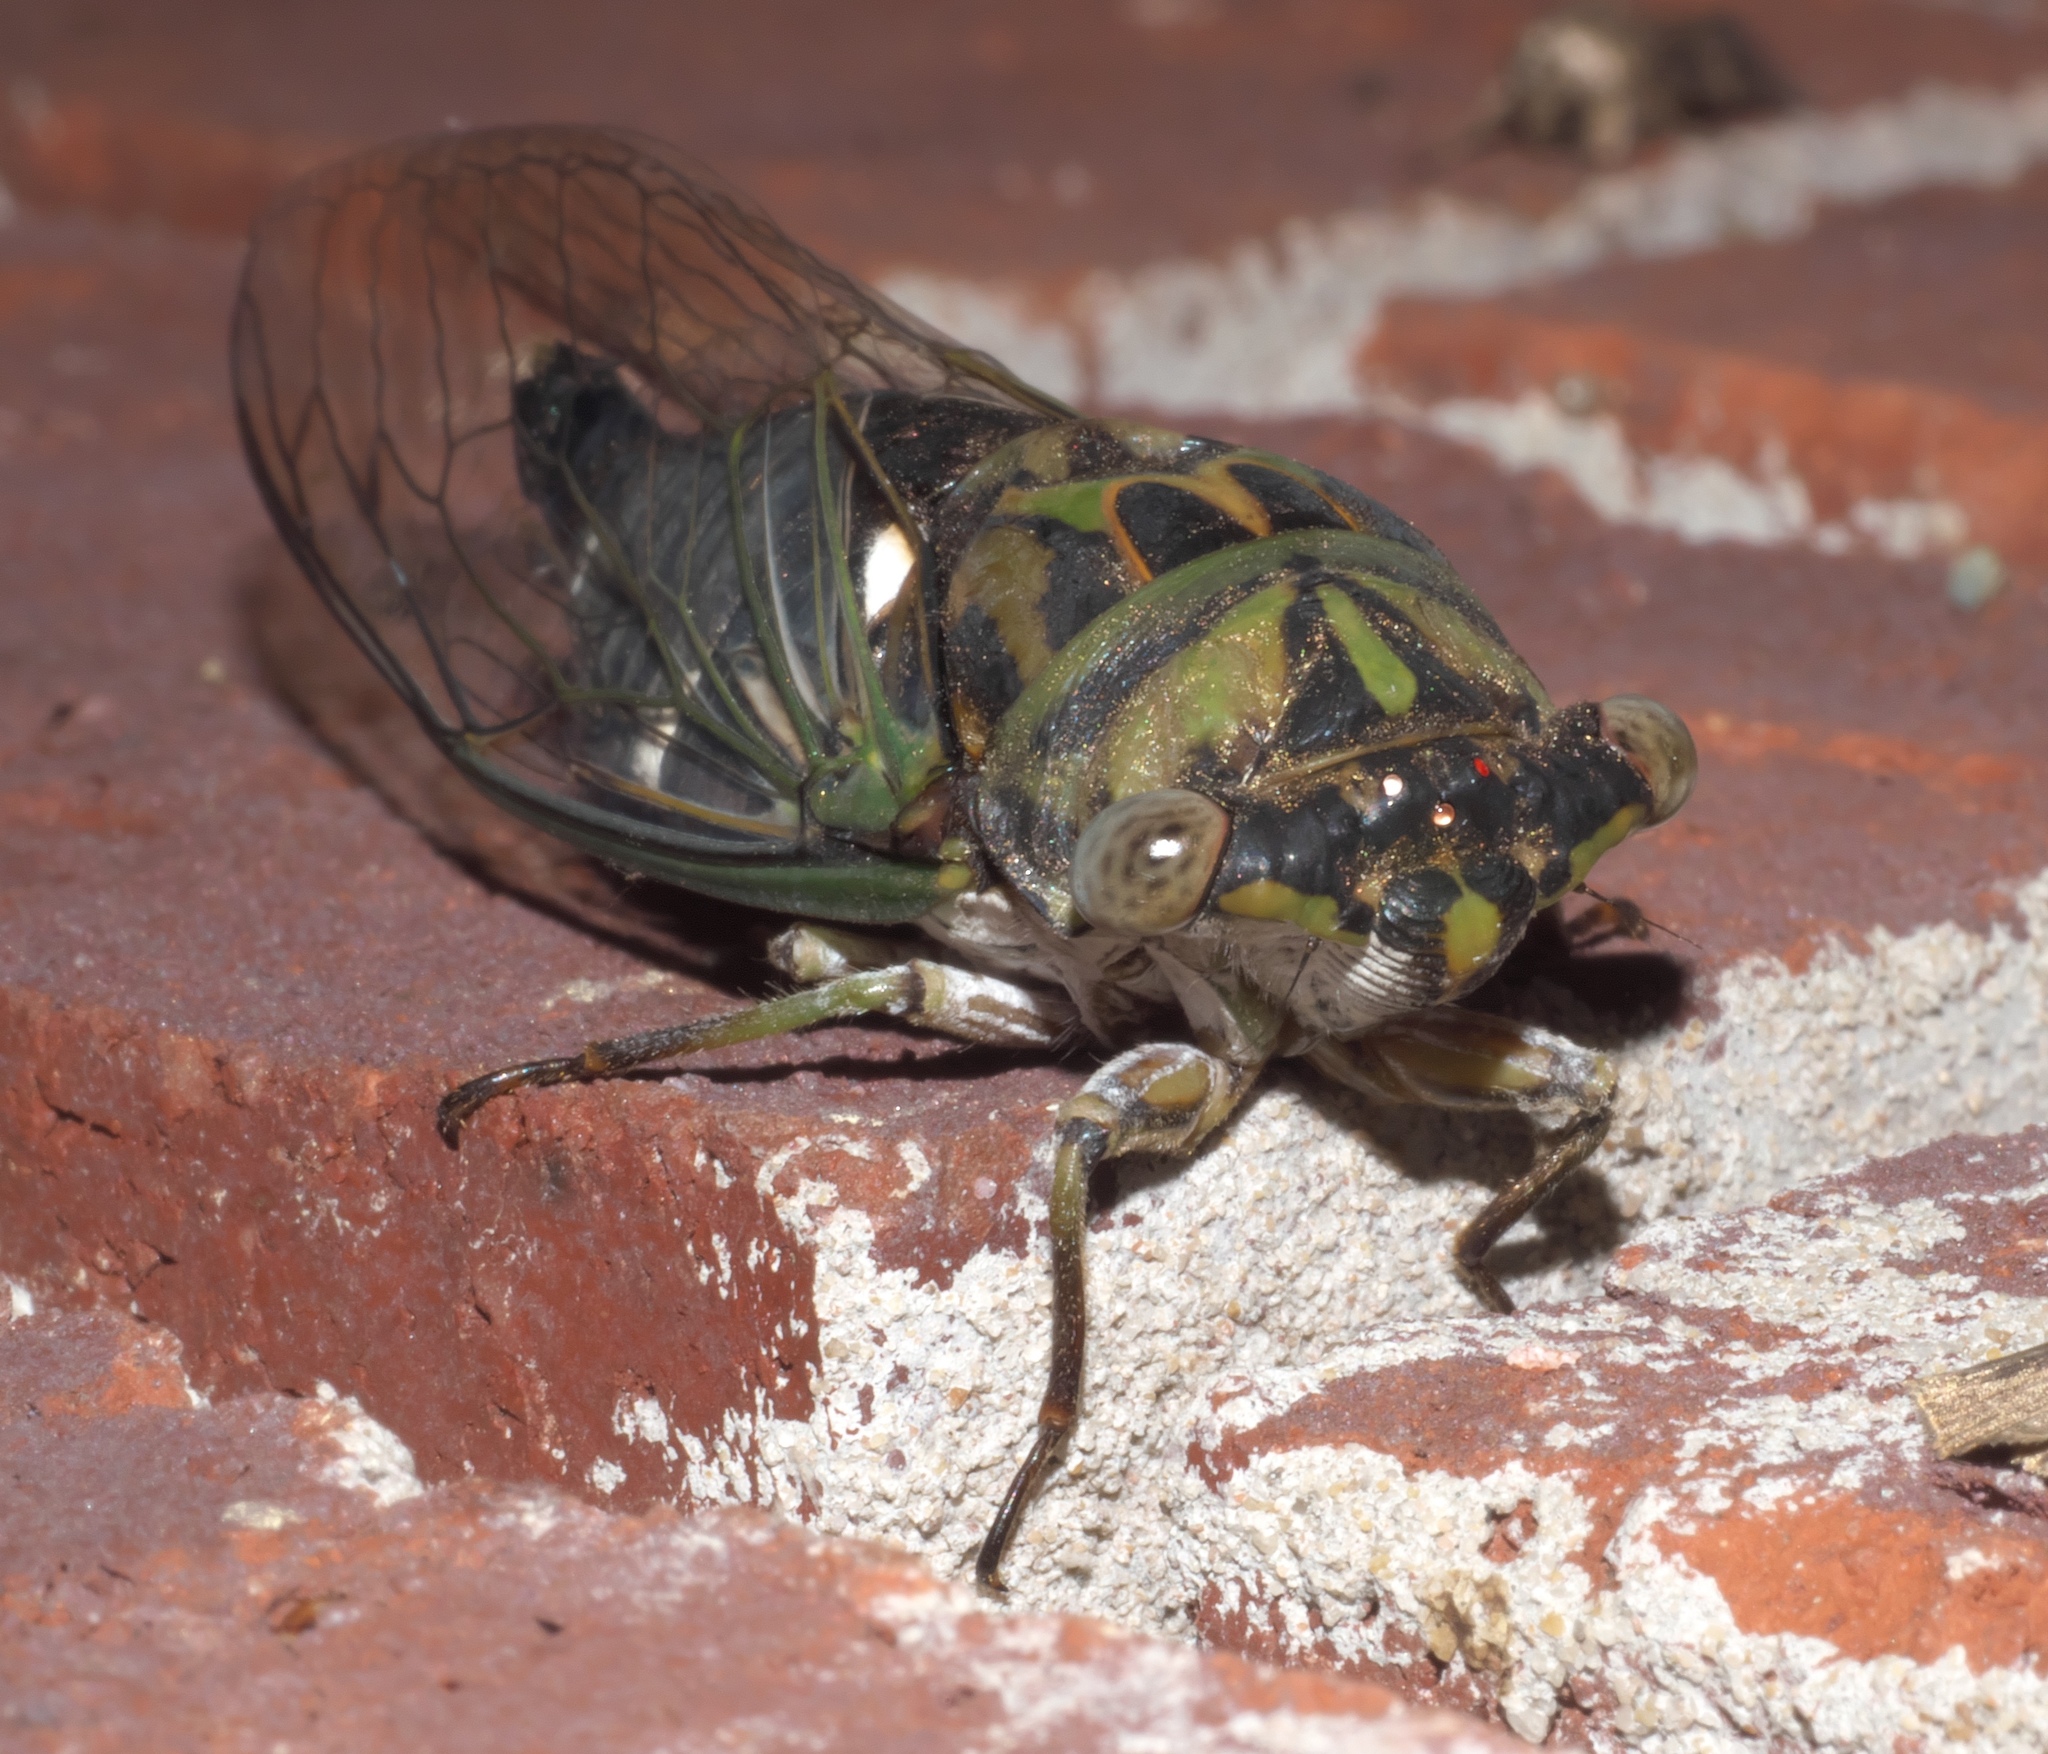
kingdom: Animalia
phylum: Arthropoda
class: Insecta
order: Hemiptera
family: Cicadidae
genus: Neotibicen
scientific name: Neotibicen pruinosus
